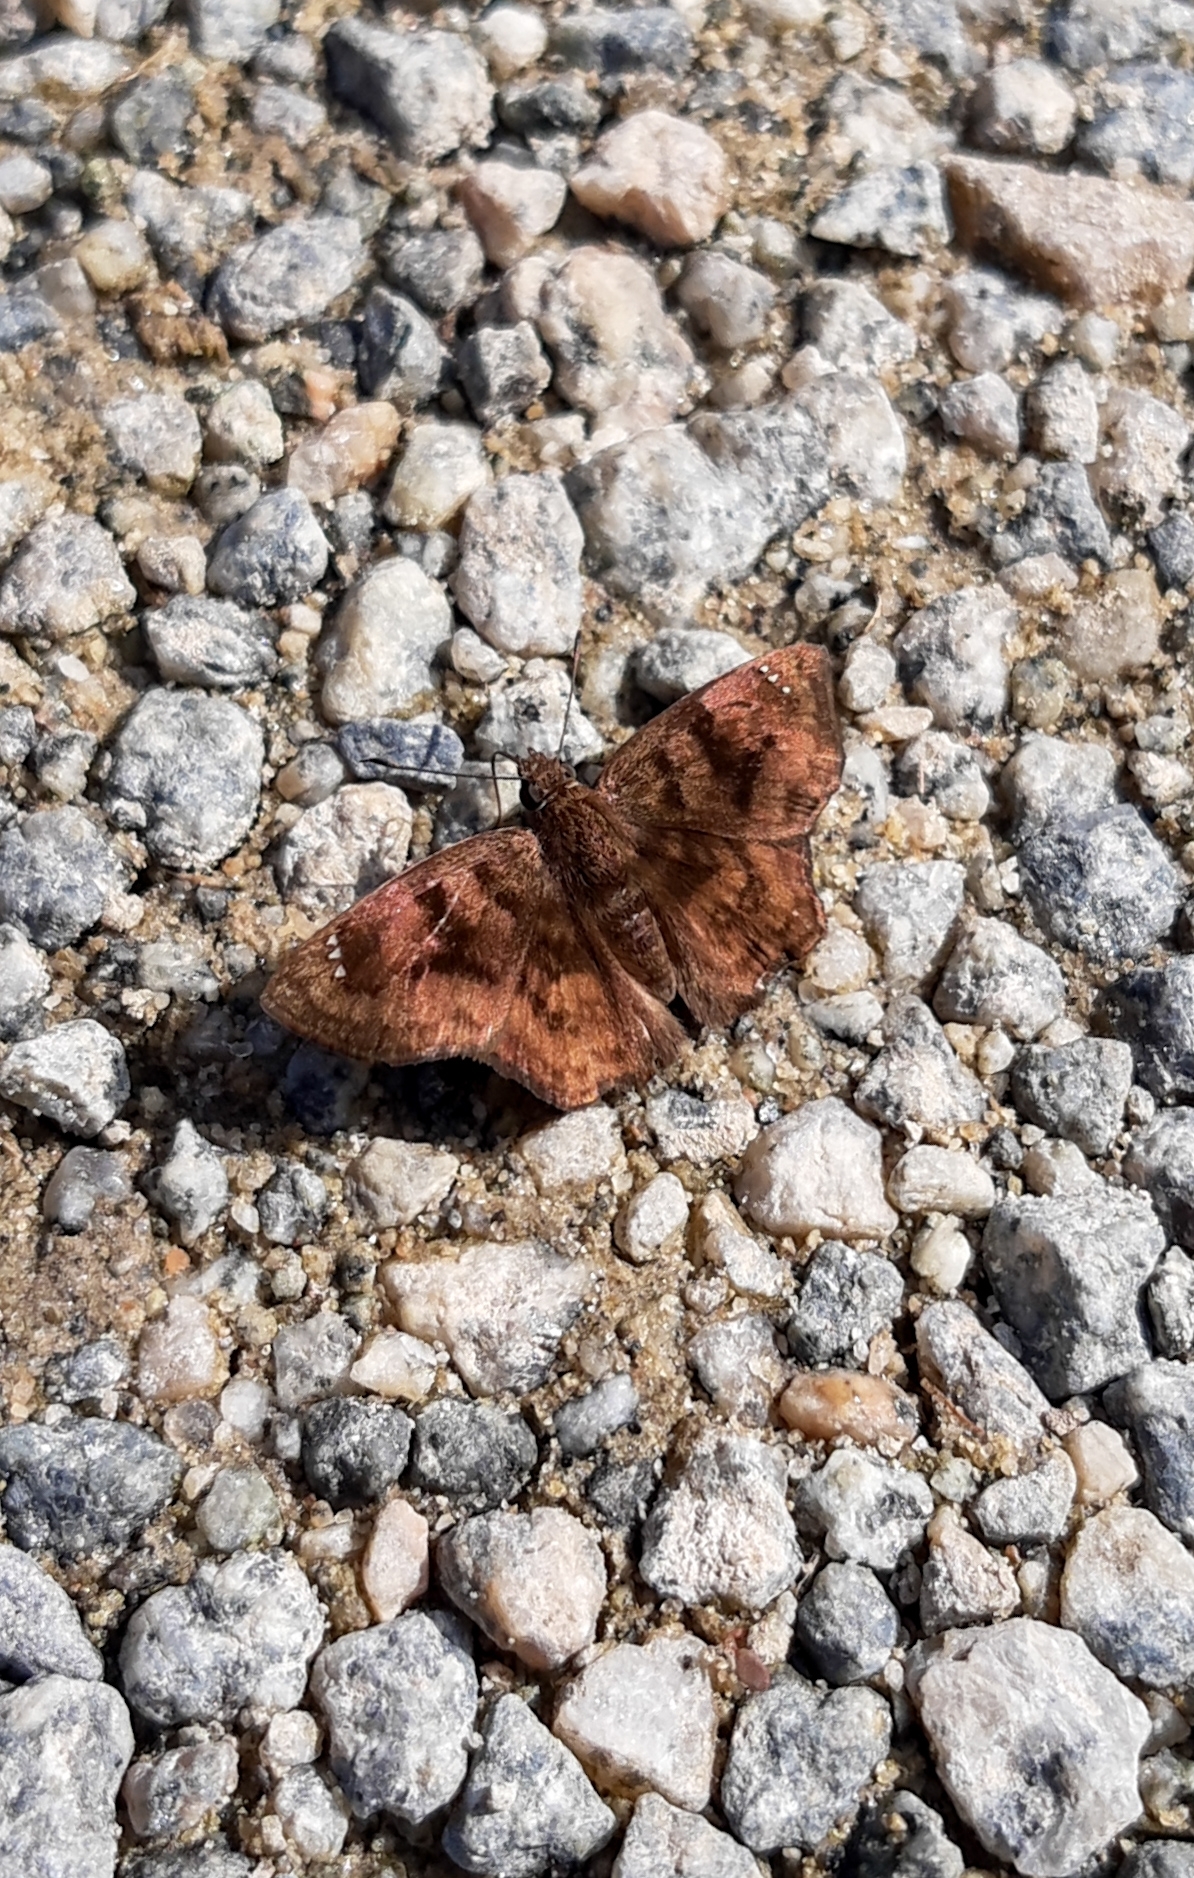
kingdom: Animalia
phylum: Arthropoda
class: Insecta
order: Lepidoptera
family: Hesperiidae
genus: Nisoniades
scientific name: Nisoniades macarius
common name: Macarius tufted-skipper
